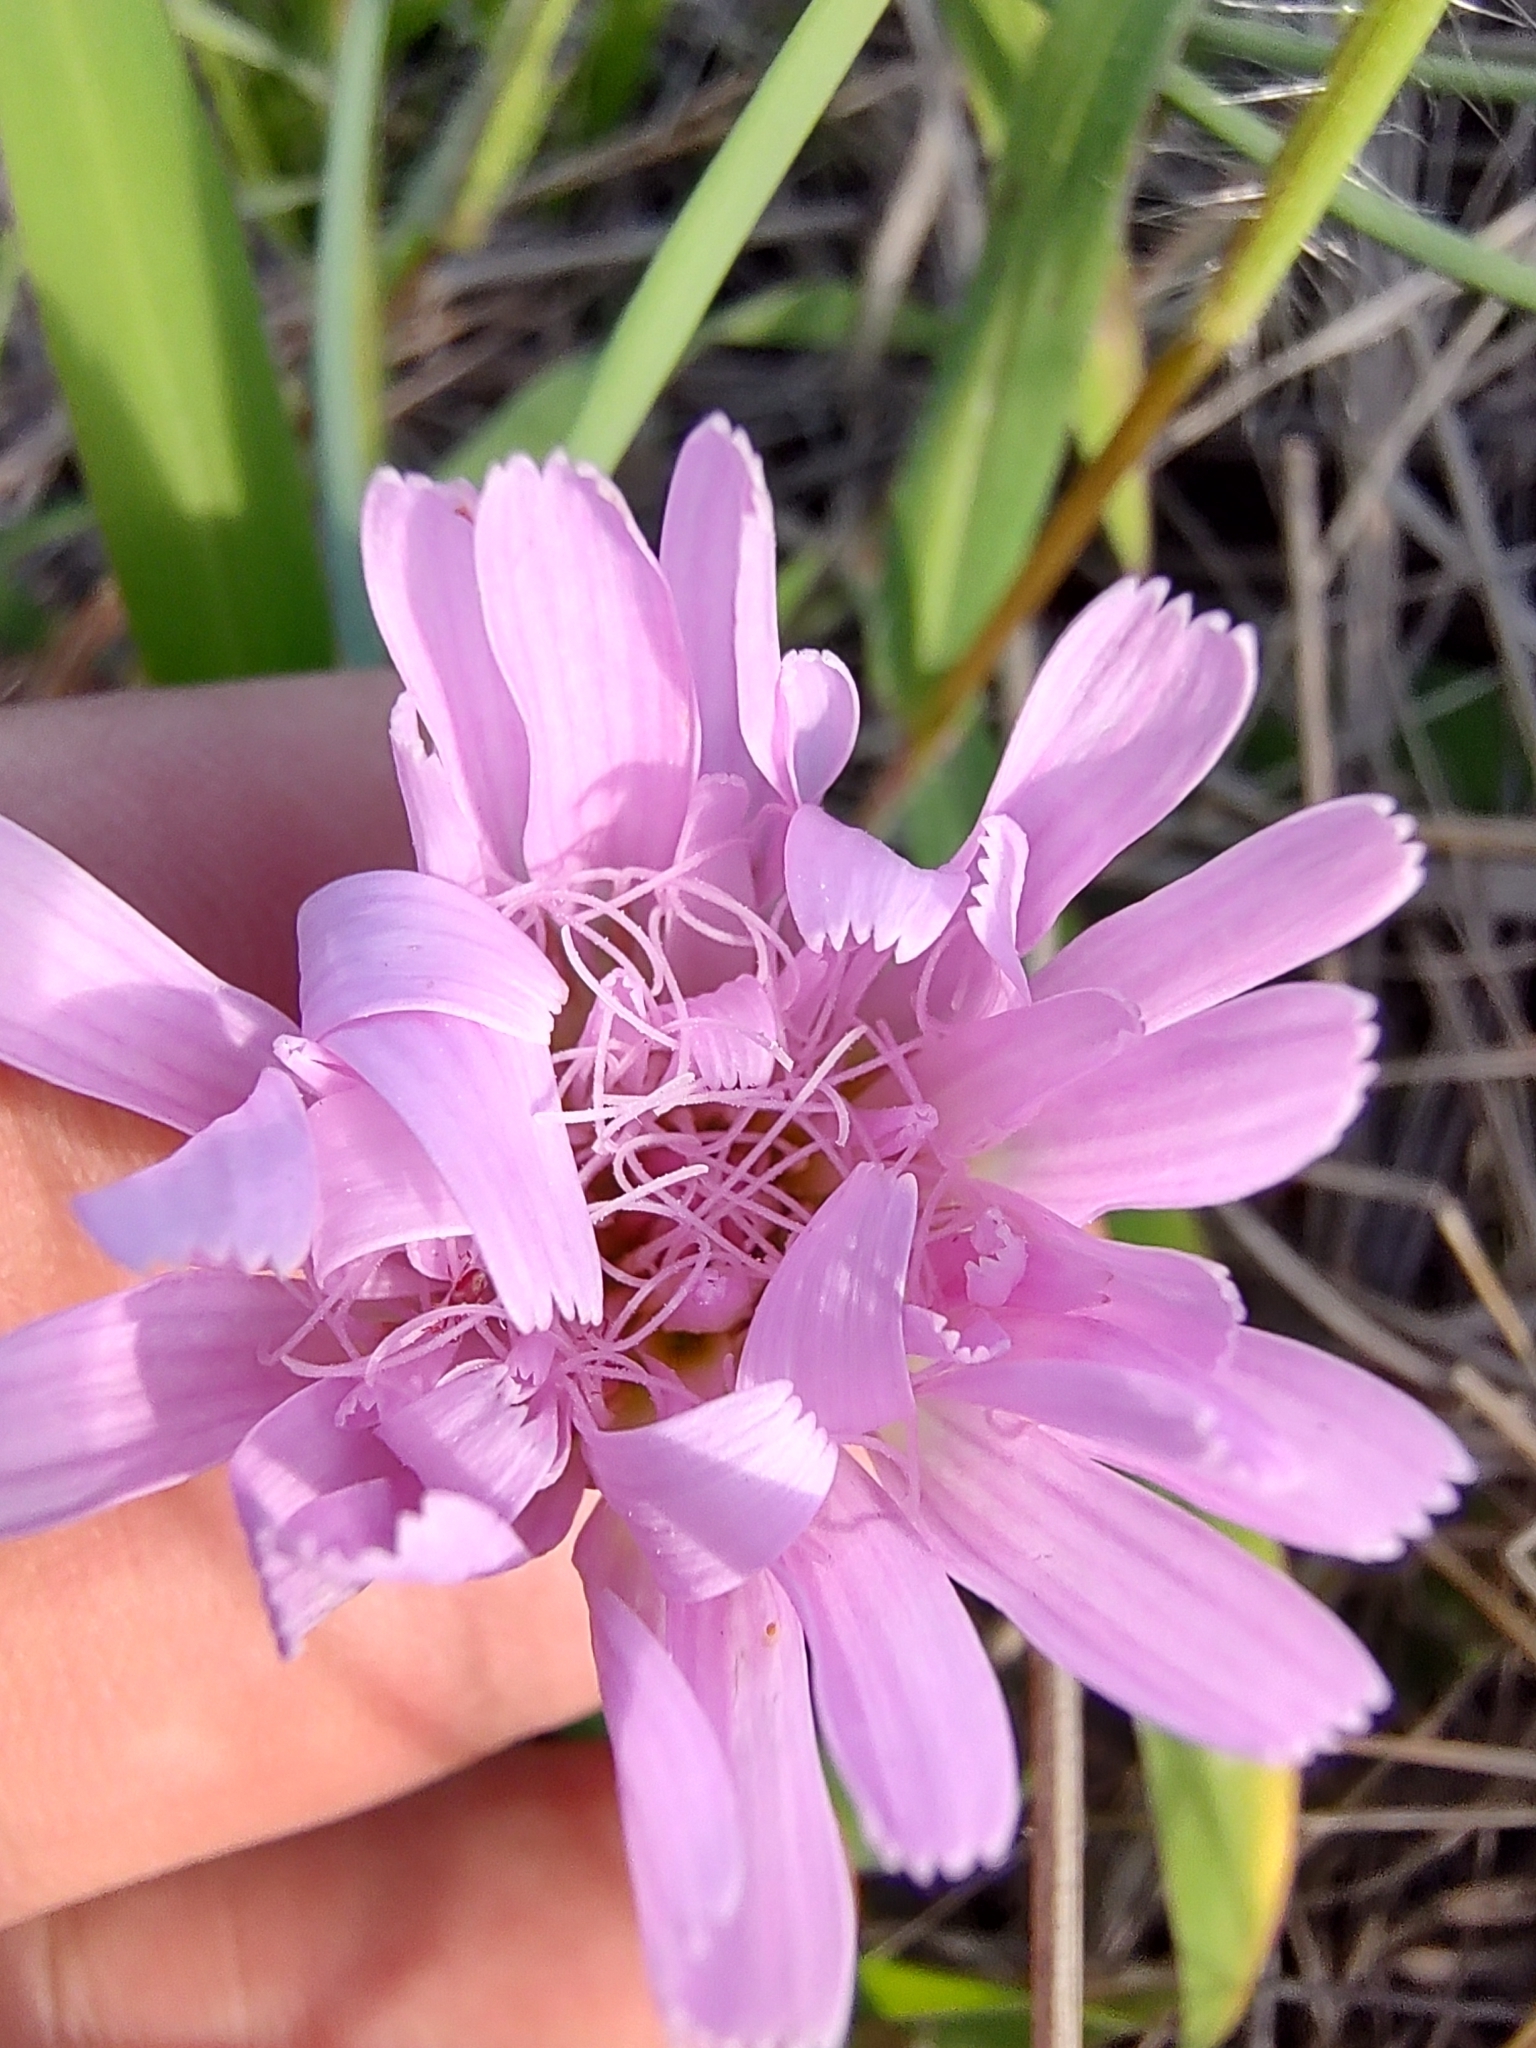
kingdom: Plantae
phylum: Tracheophyta
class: Magnoliopsida
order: Asterales
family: Asteraceae
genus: Pinaropappus
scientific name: Pinaropappus roseus
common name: Rock-lettuce
